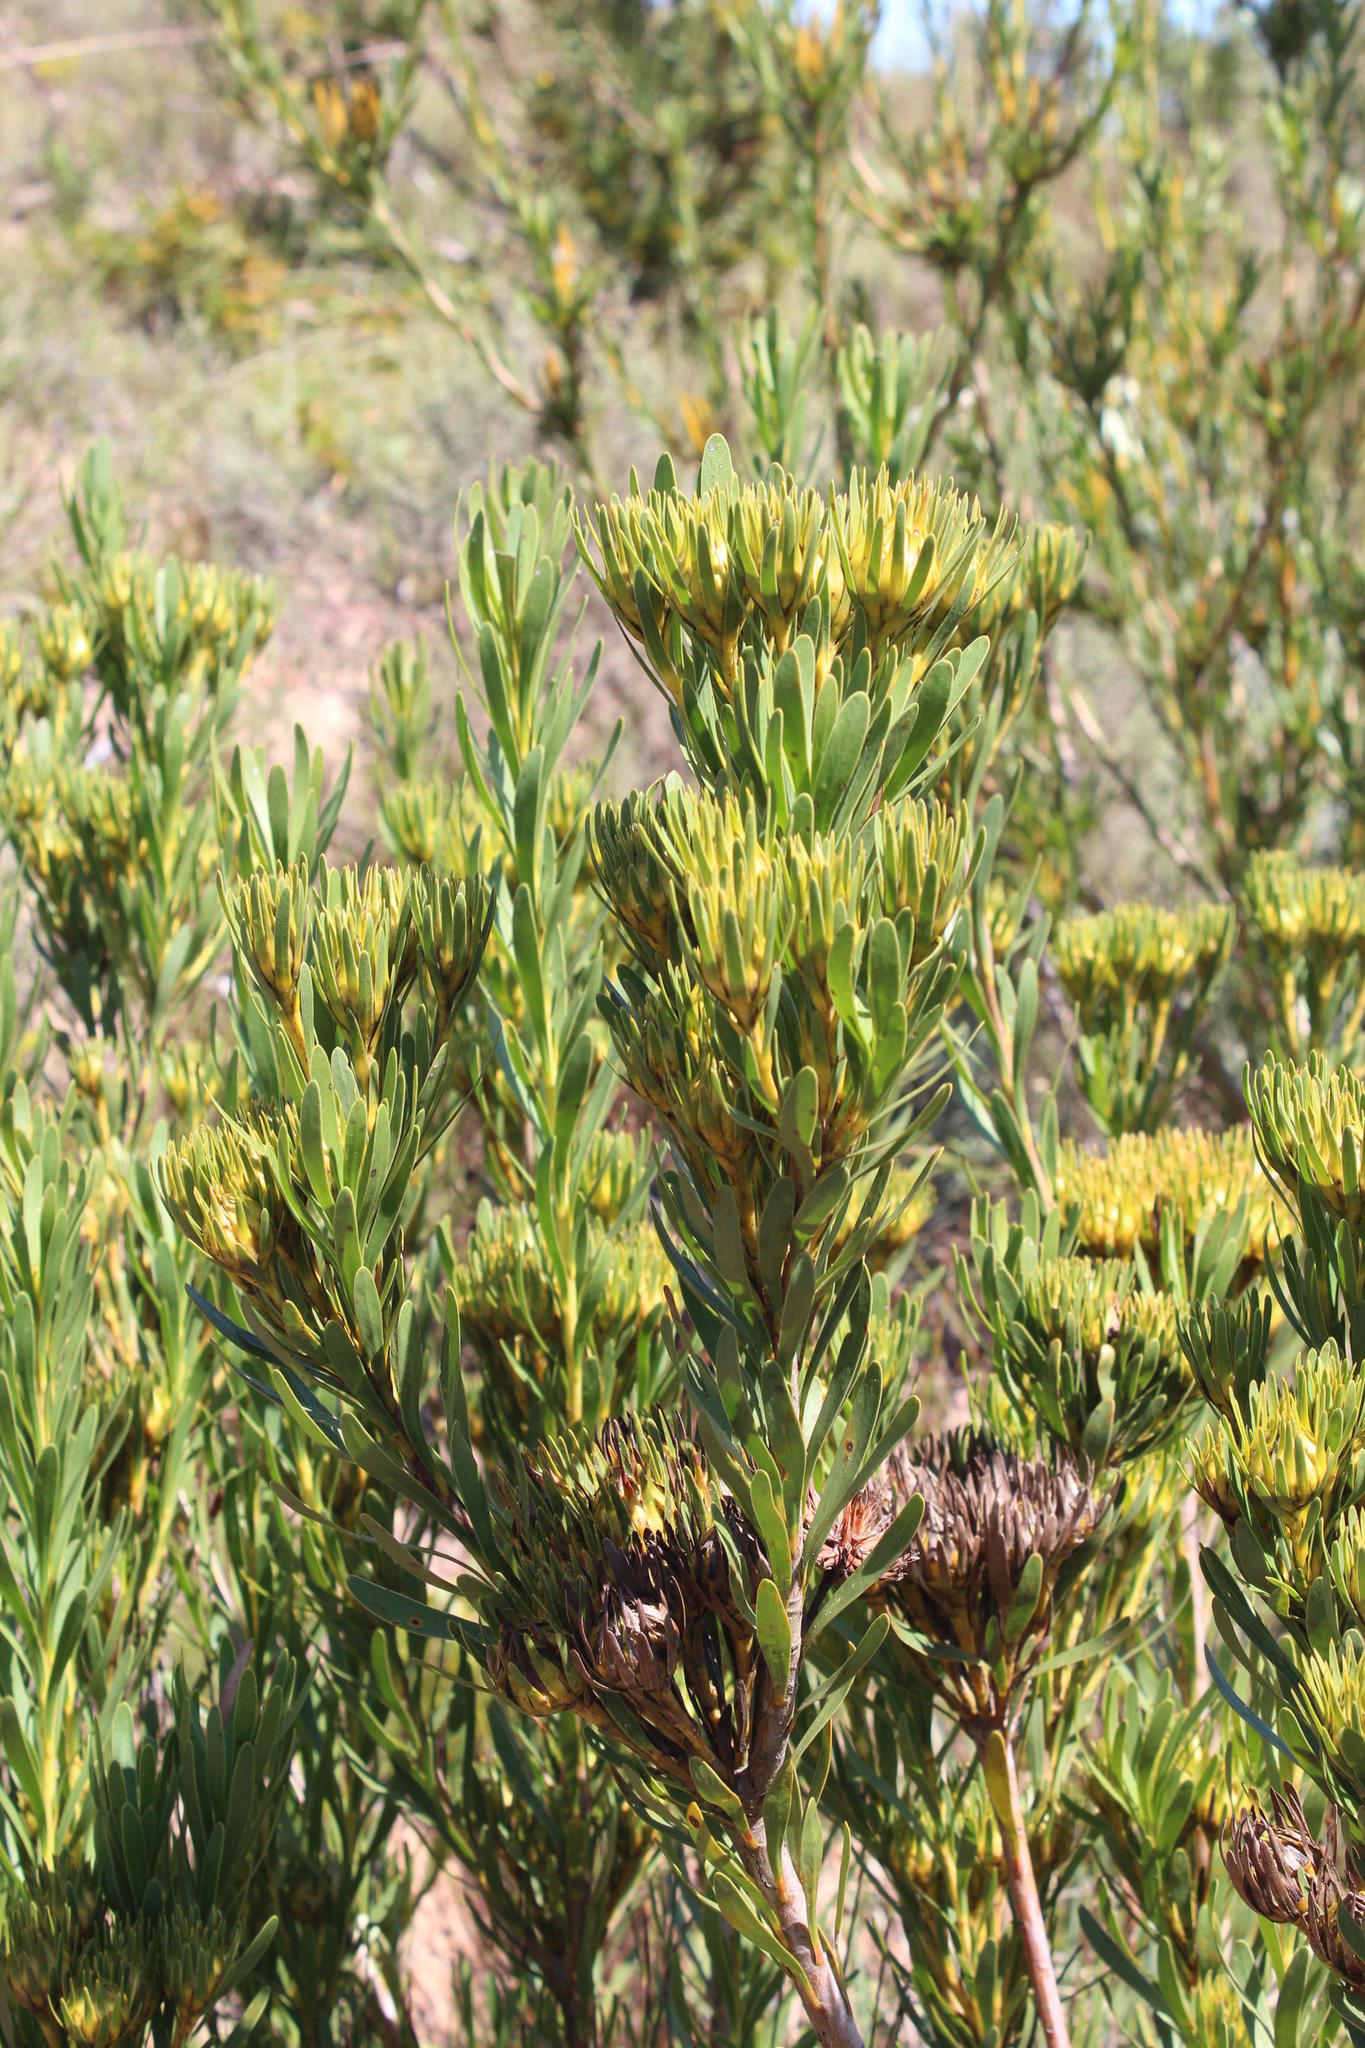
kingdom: Plantae
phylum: Tracheophyta
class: Magnoliopsida
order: Proteales
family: Proteaceae
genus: Aulax
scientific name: Aulax umbellata
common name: Broad-leaf featherbush
